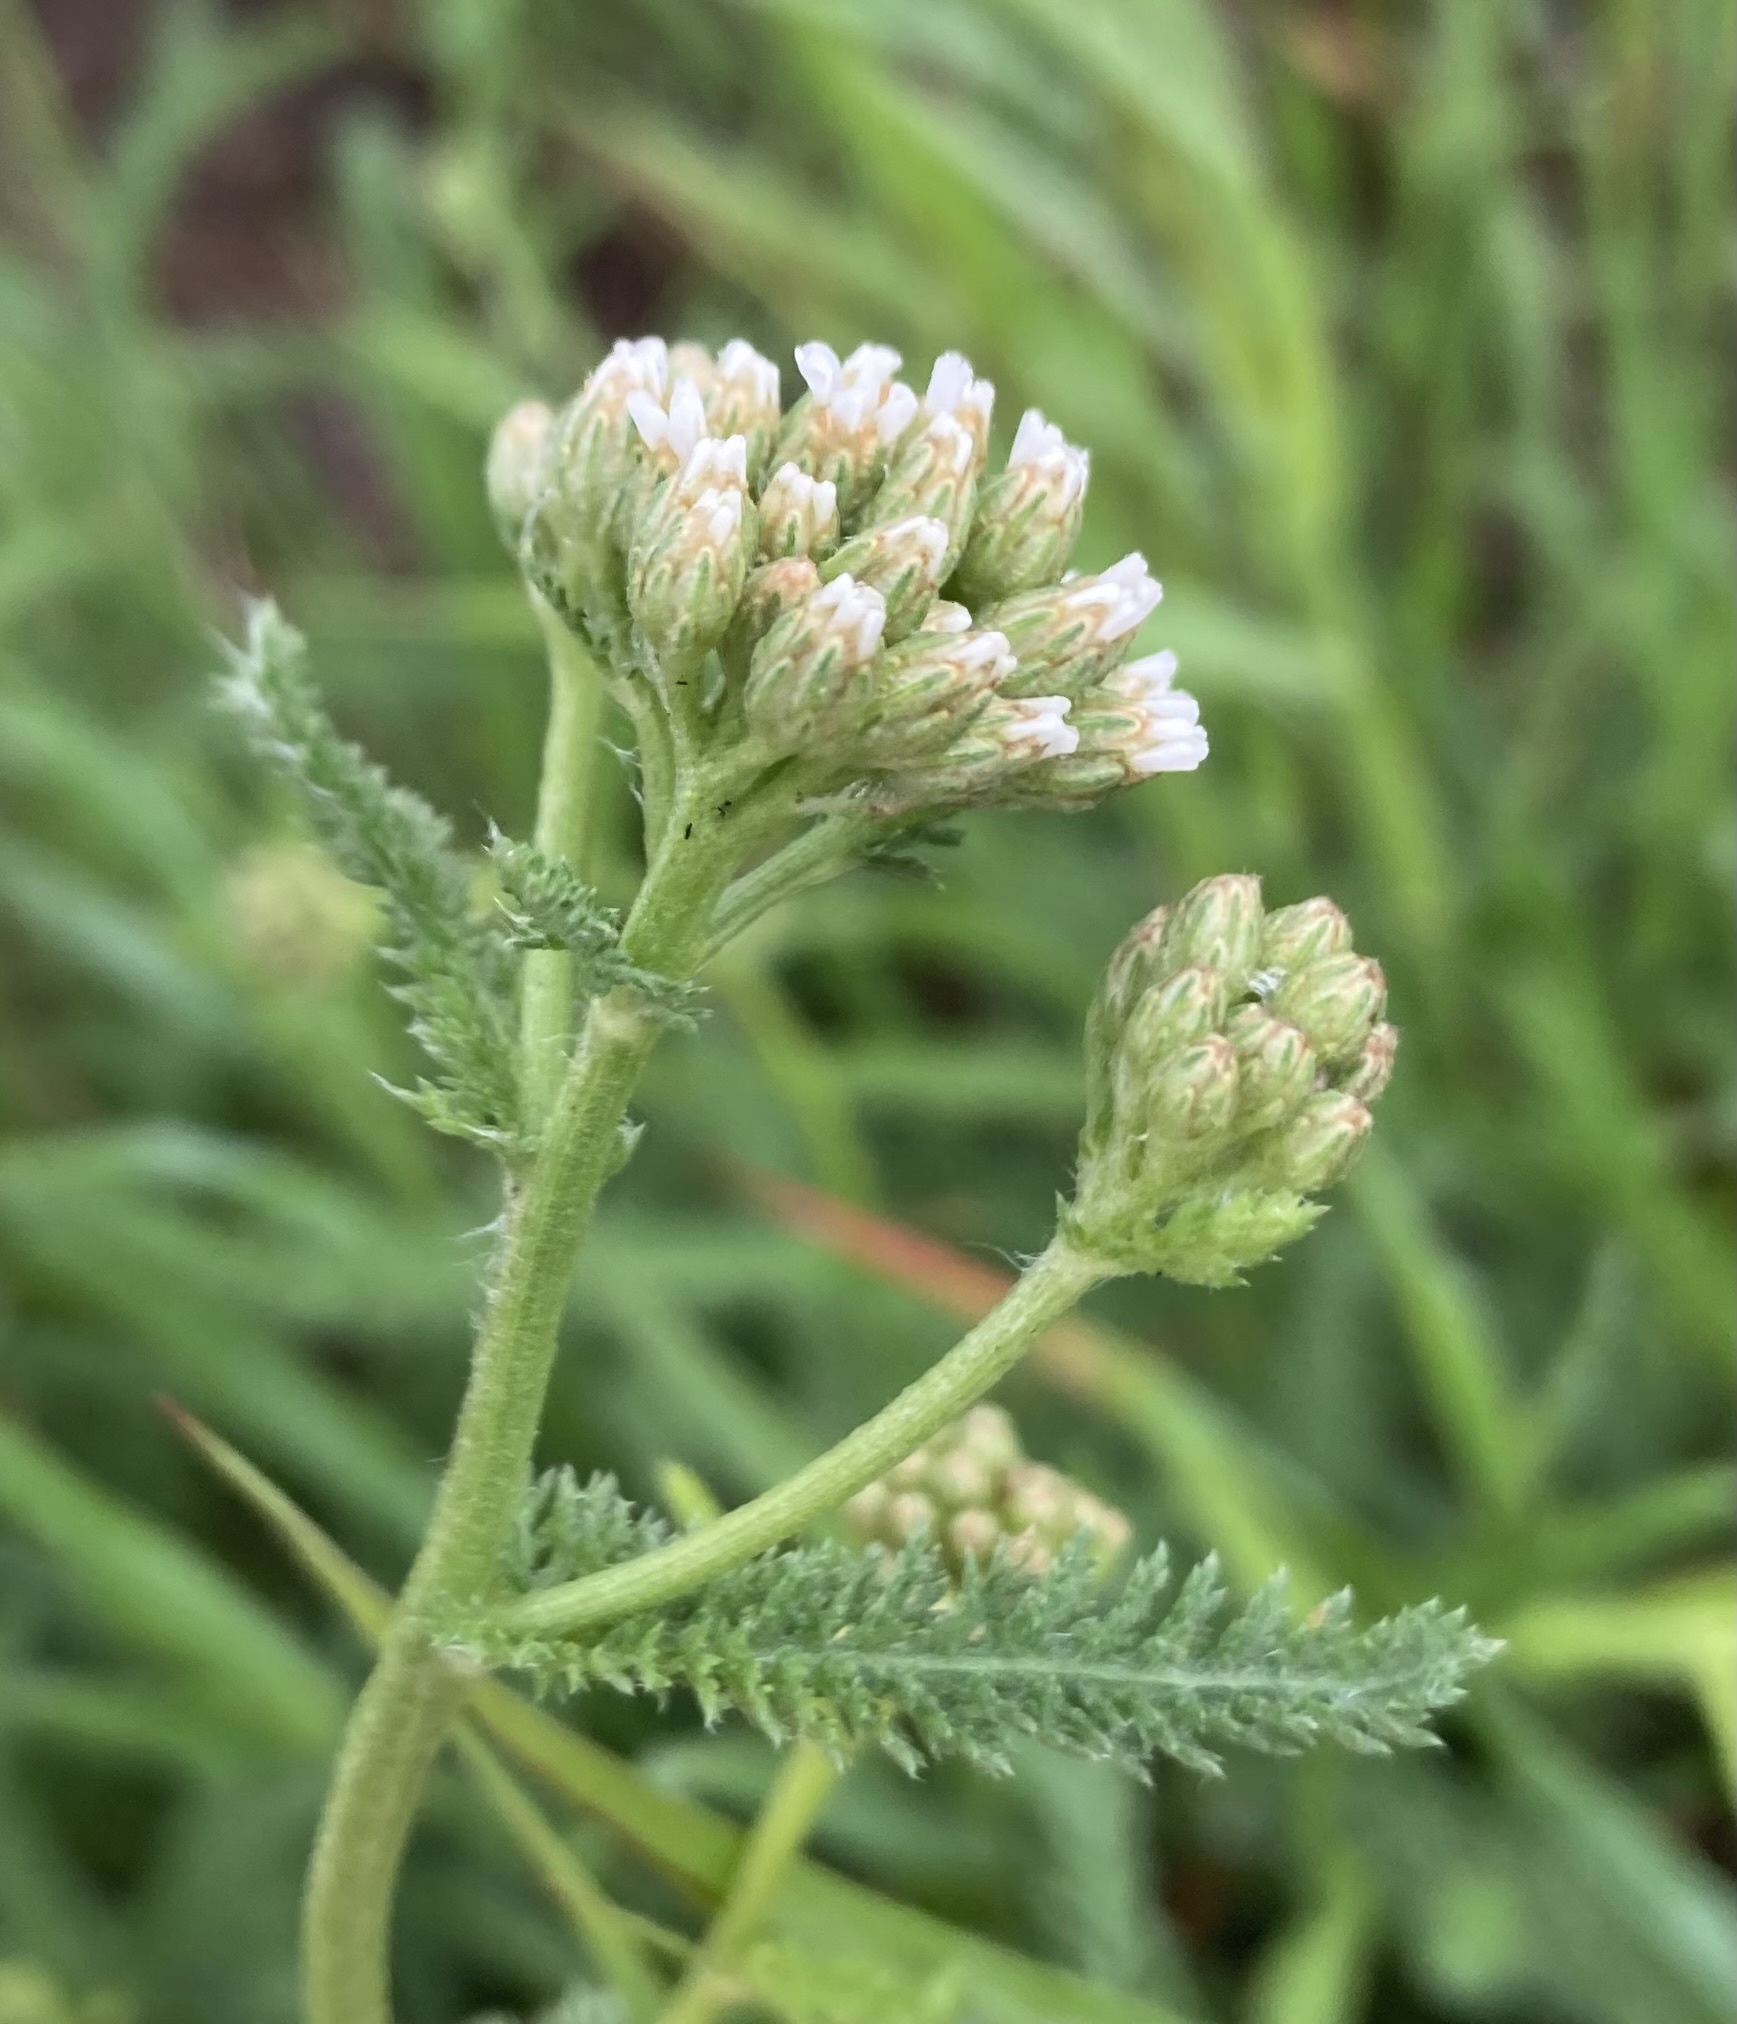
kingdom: Plantae
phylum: Tracheophyta
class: Magnoliopsida
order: Asterales
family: Asteraceae
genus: Achillea
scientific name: Achillea millefolium
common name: Yarrow
